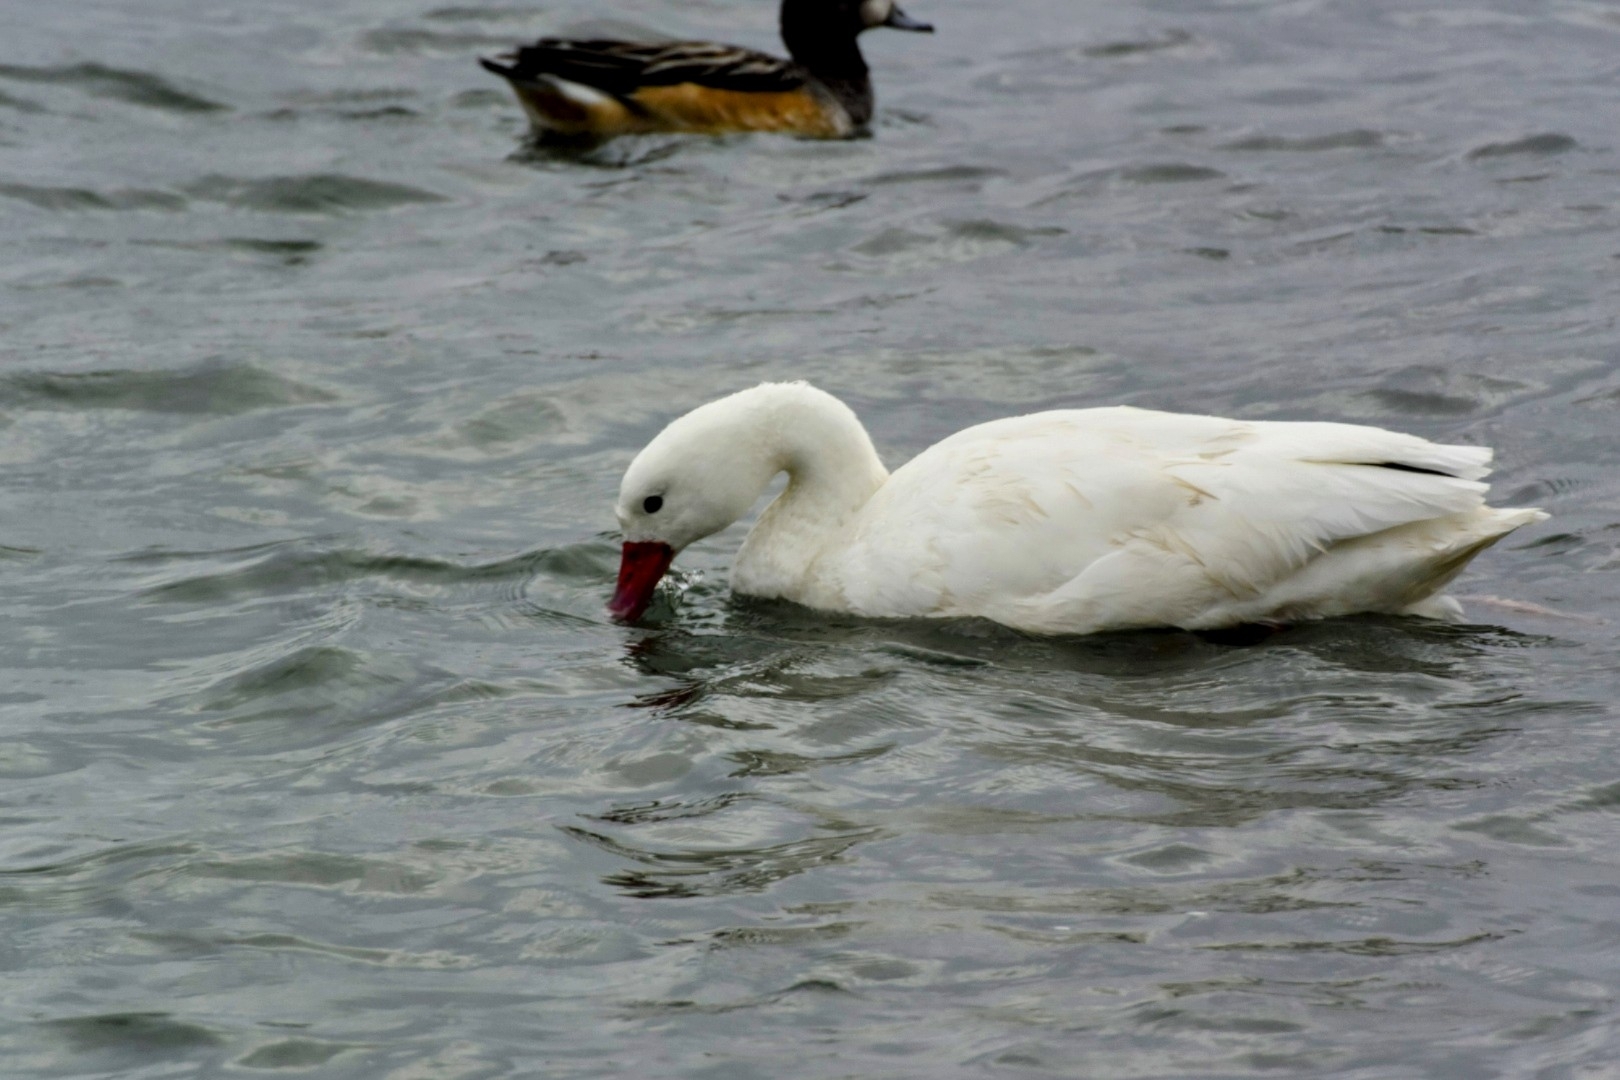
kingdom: Animalia
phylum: Chordata
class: Aves
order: Anseriformes
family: Anatidae
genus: Coscoroba
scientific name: Coscoroba coscoroba
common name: Coscoroba swan
